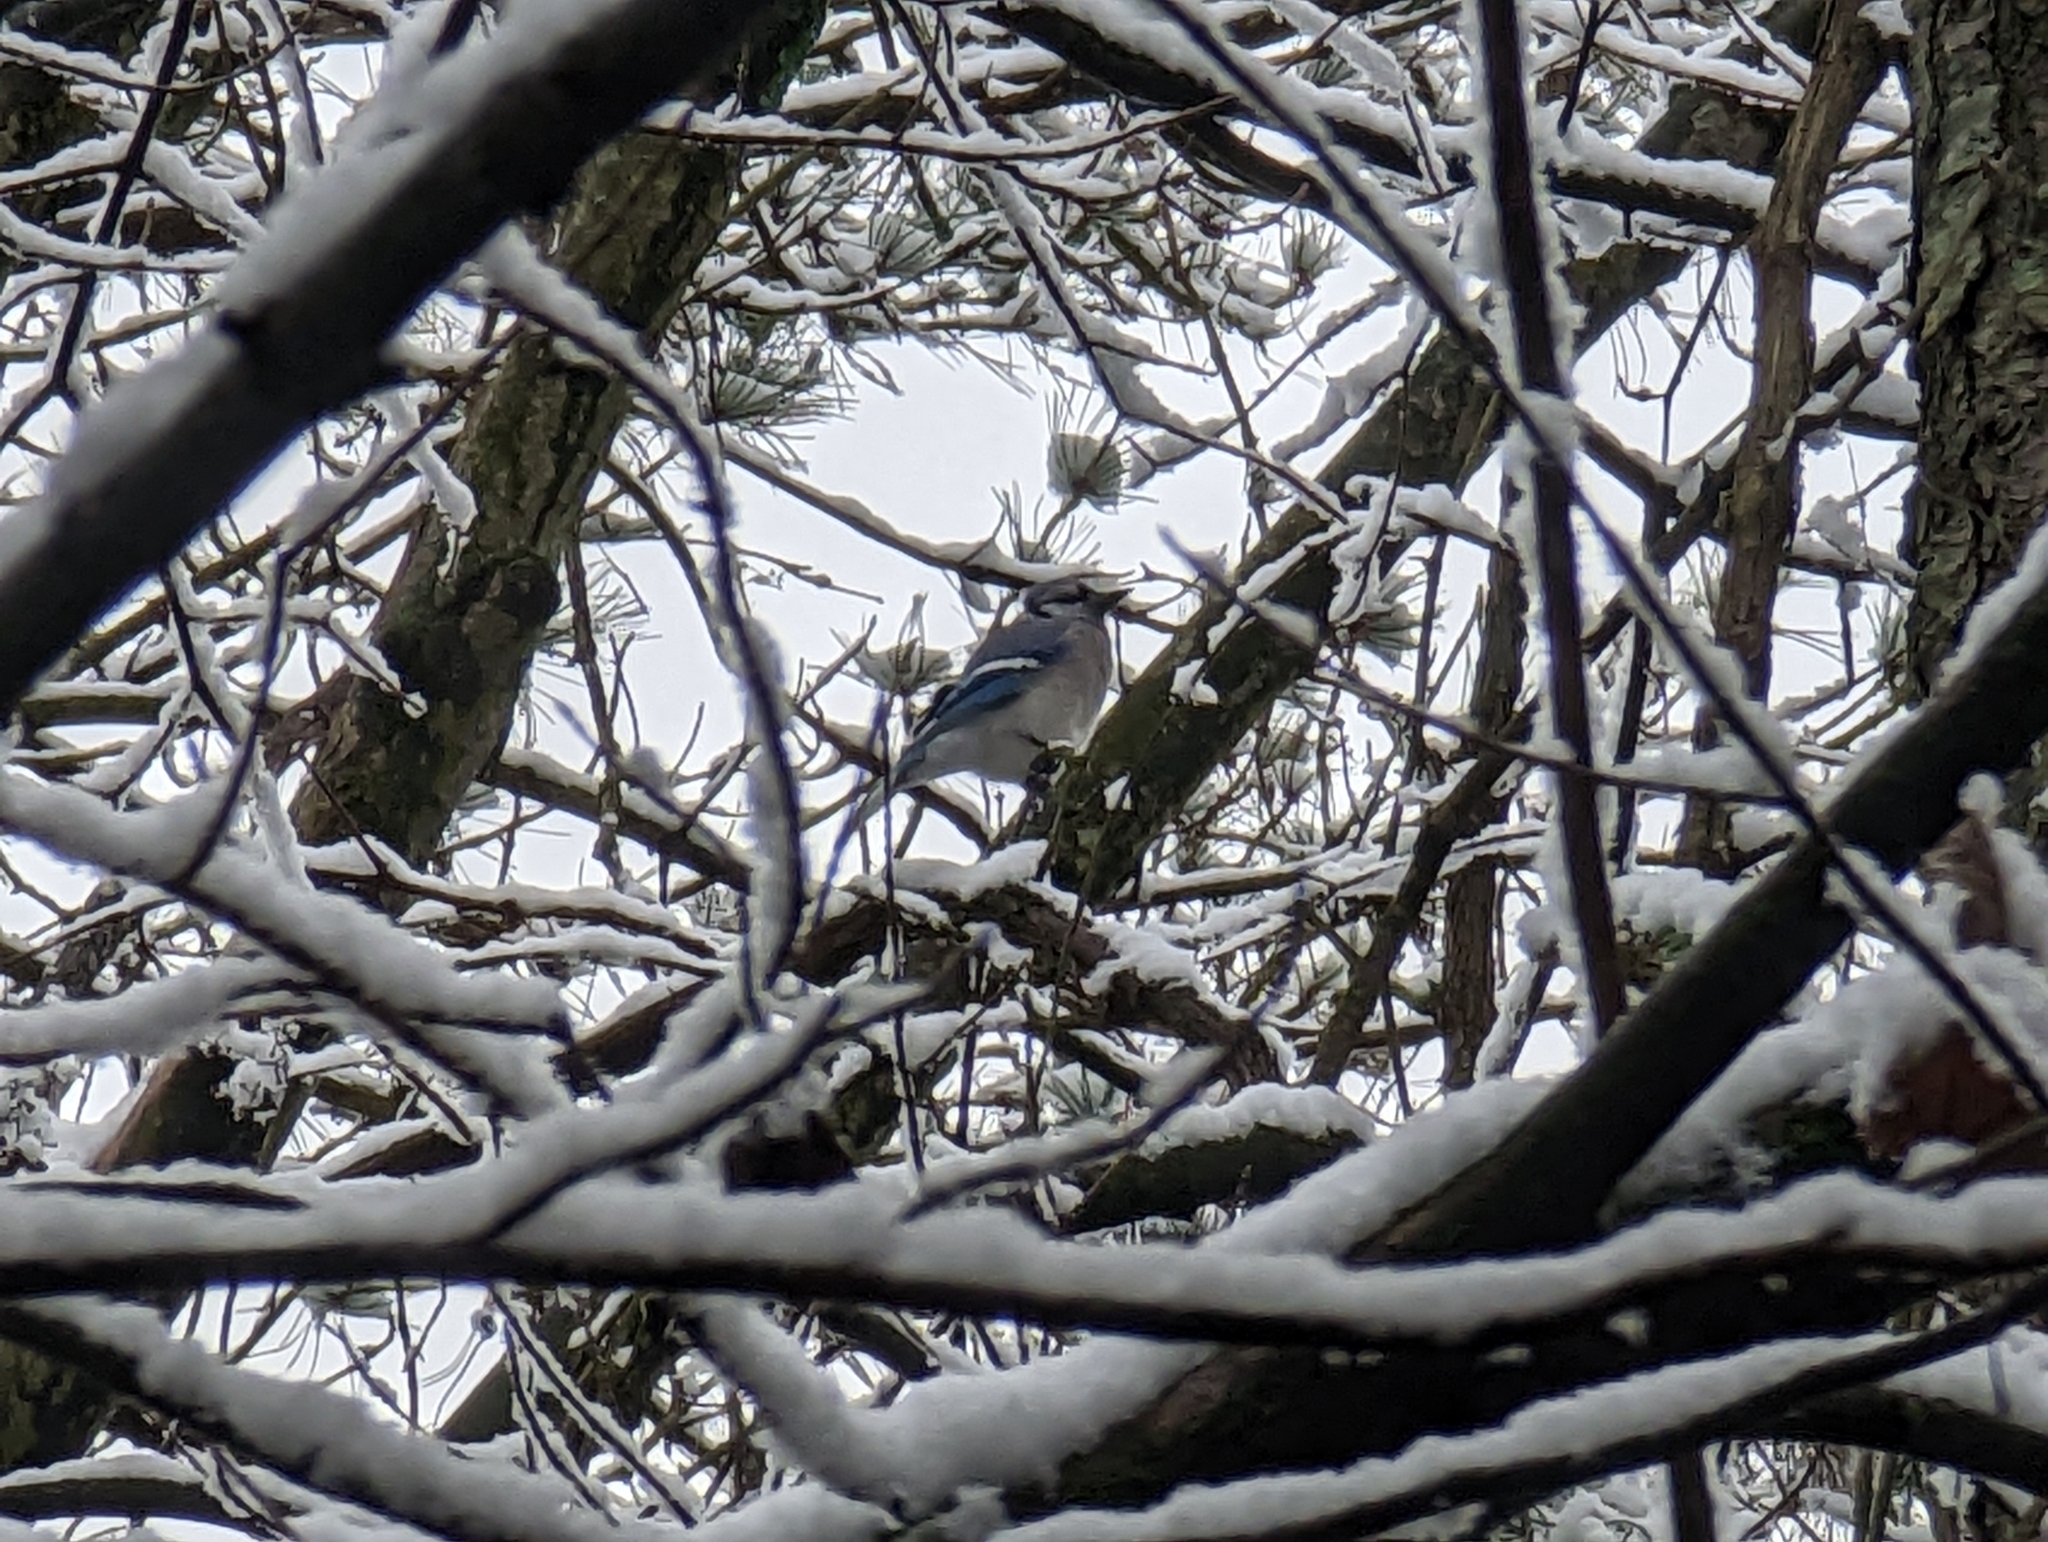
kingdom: Animalia
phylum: Chordata
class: Aves
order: Passeriformes
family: Corvidae
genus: Cyanocitta
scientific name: Cyanocitta cristata
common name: Blue jay
